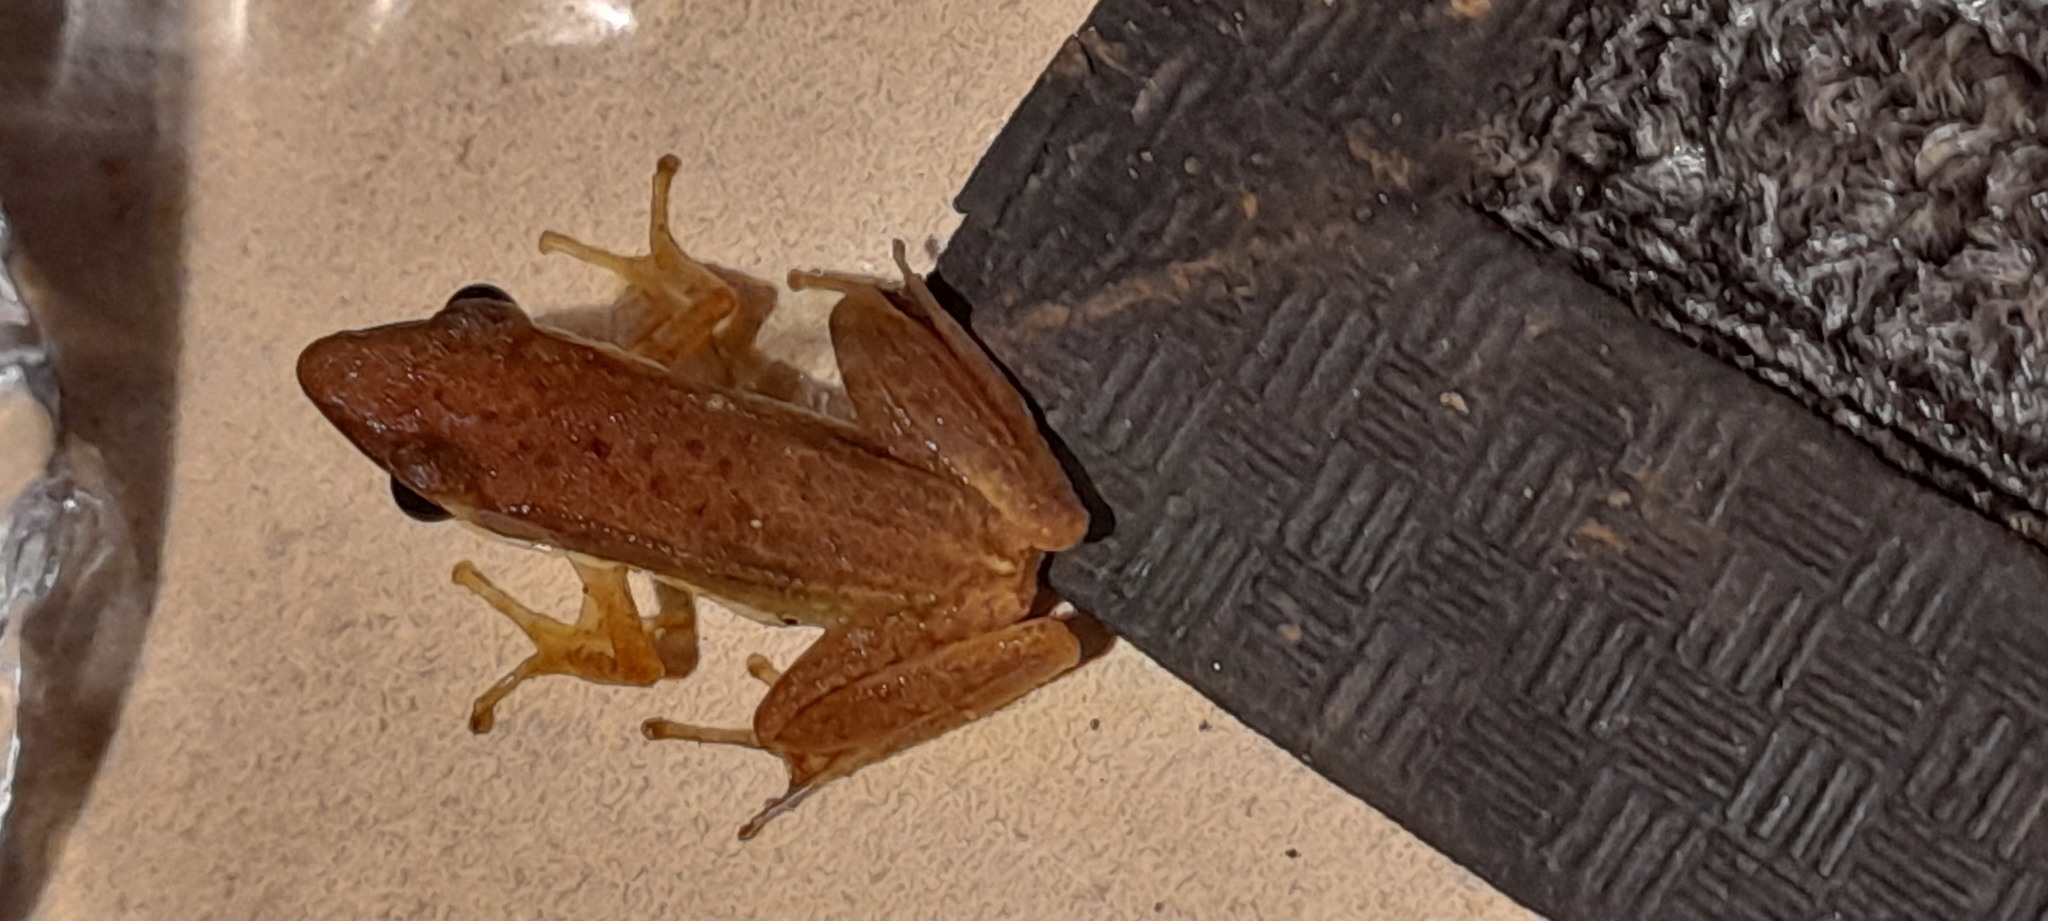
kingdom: Animalia
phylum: Chordata
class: Amphibia
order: Anura
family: Ranidae
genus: Indosylvirana
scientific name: Indosylvirana urbis
